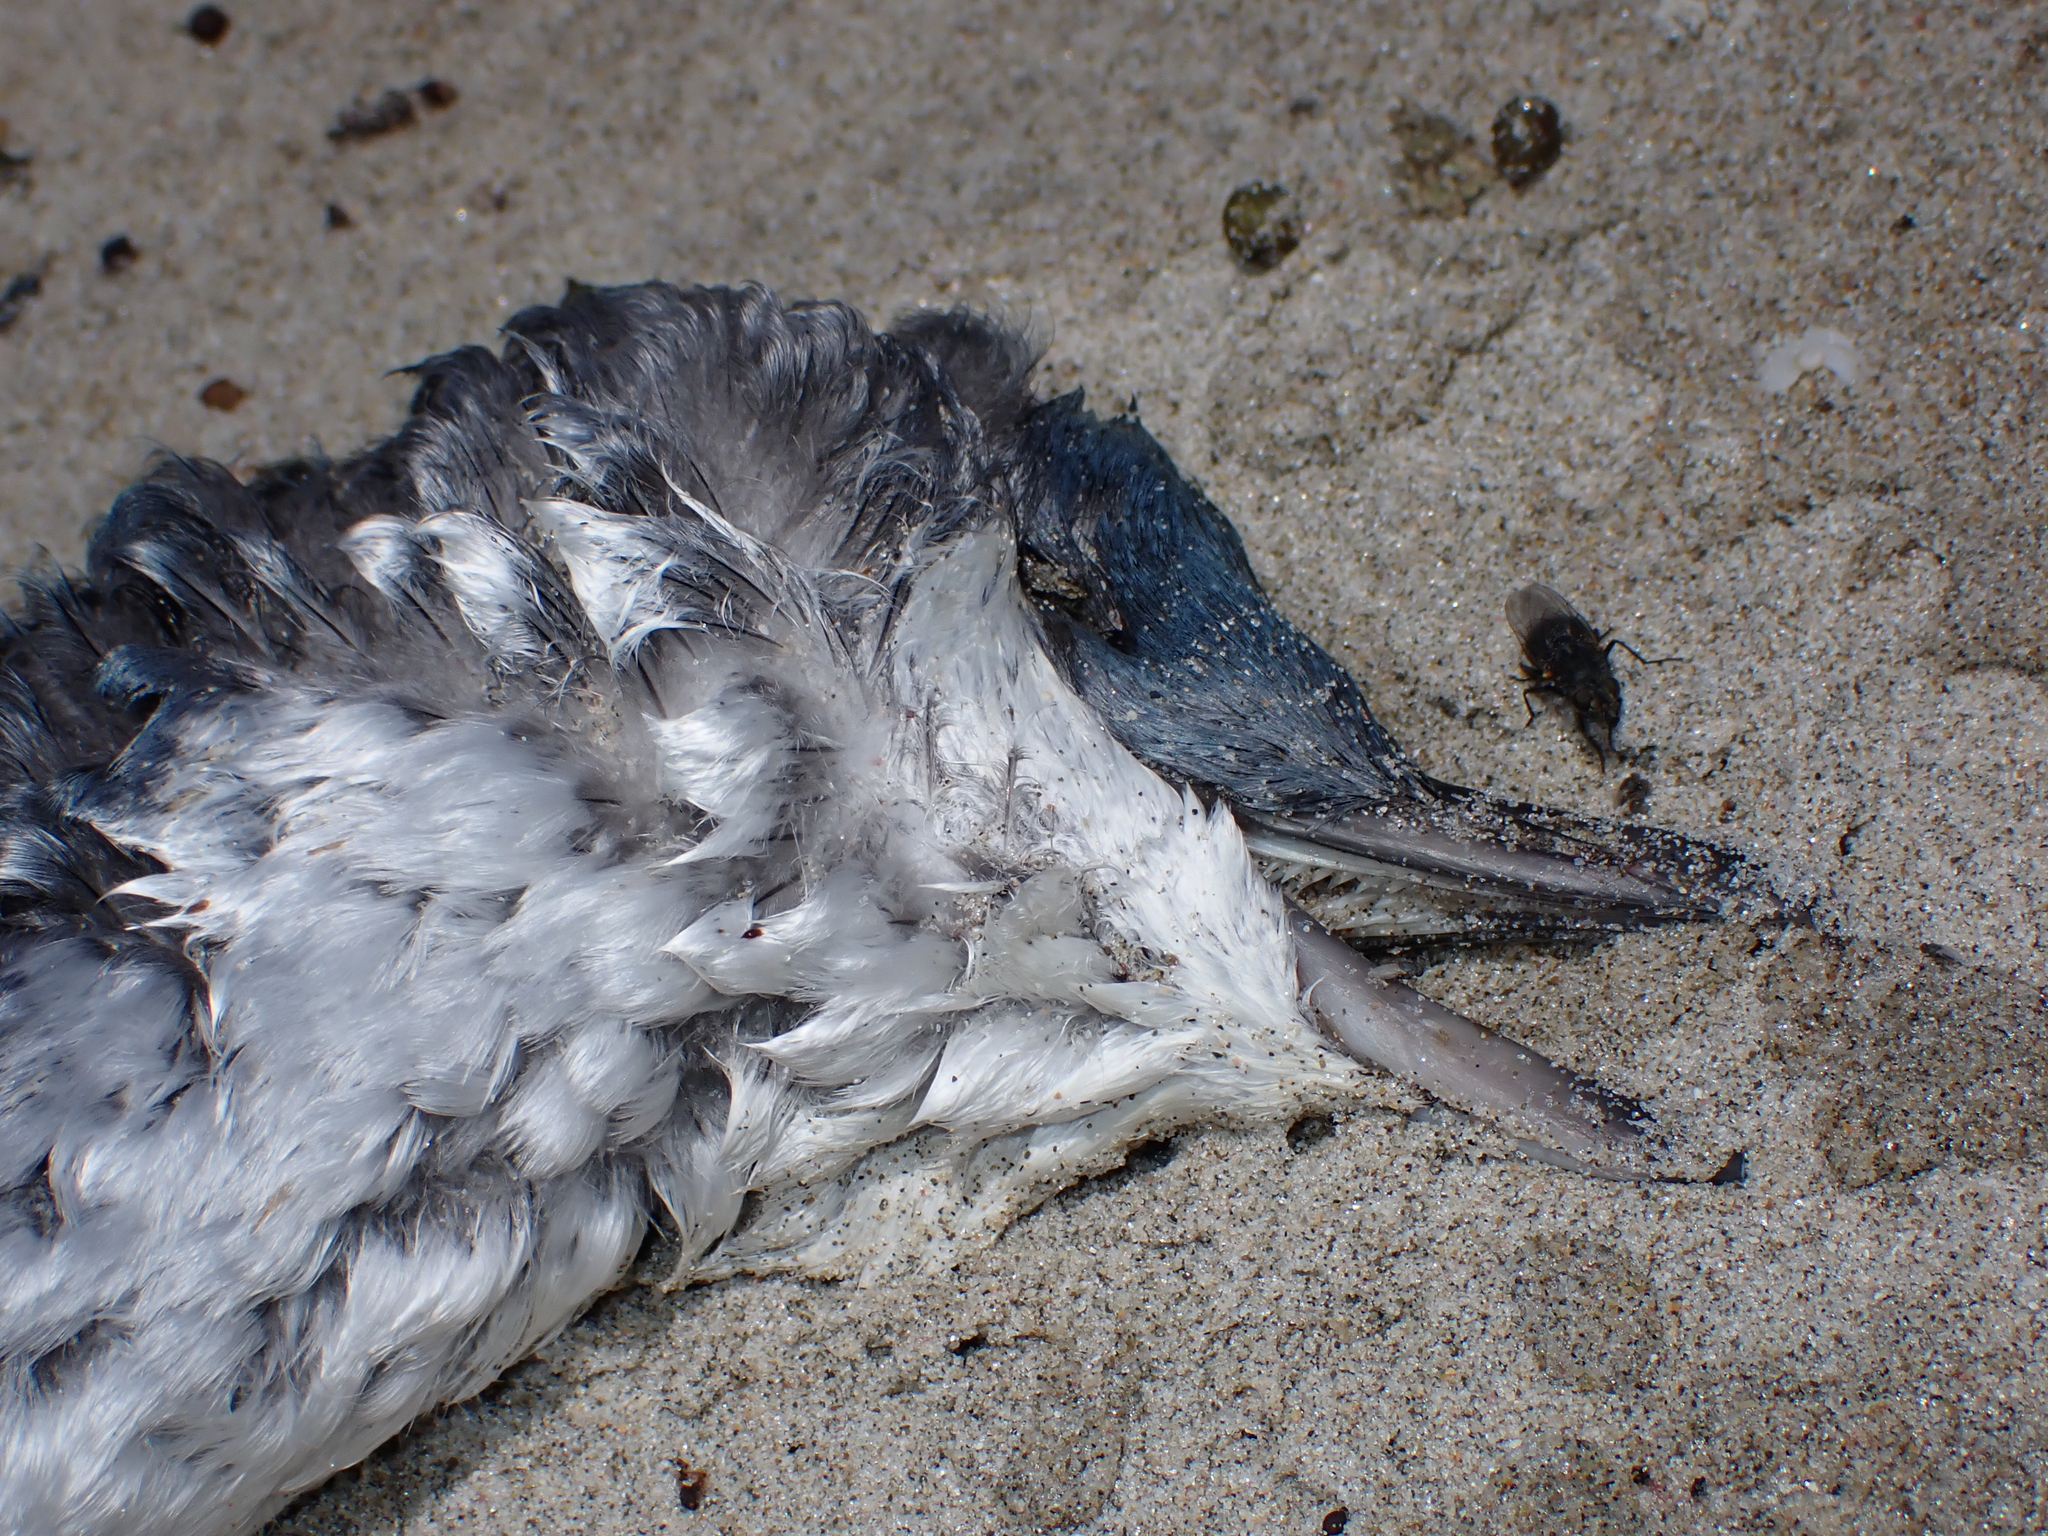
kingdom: Animalia
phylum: Chordata
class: Aves
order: Sphenisciformes
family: Spheniscidae
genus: Eudyptula
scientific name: Eudyptula minor
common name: Little penguin
